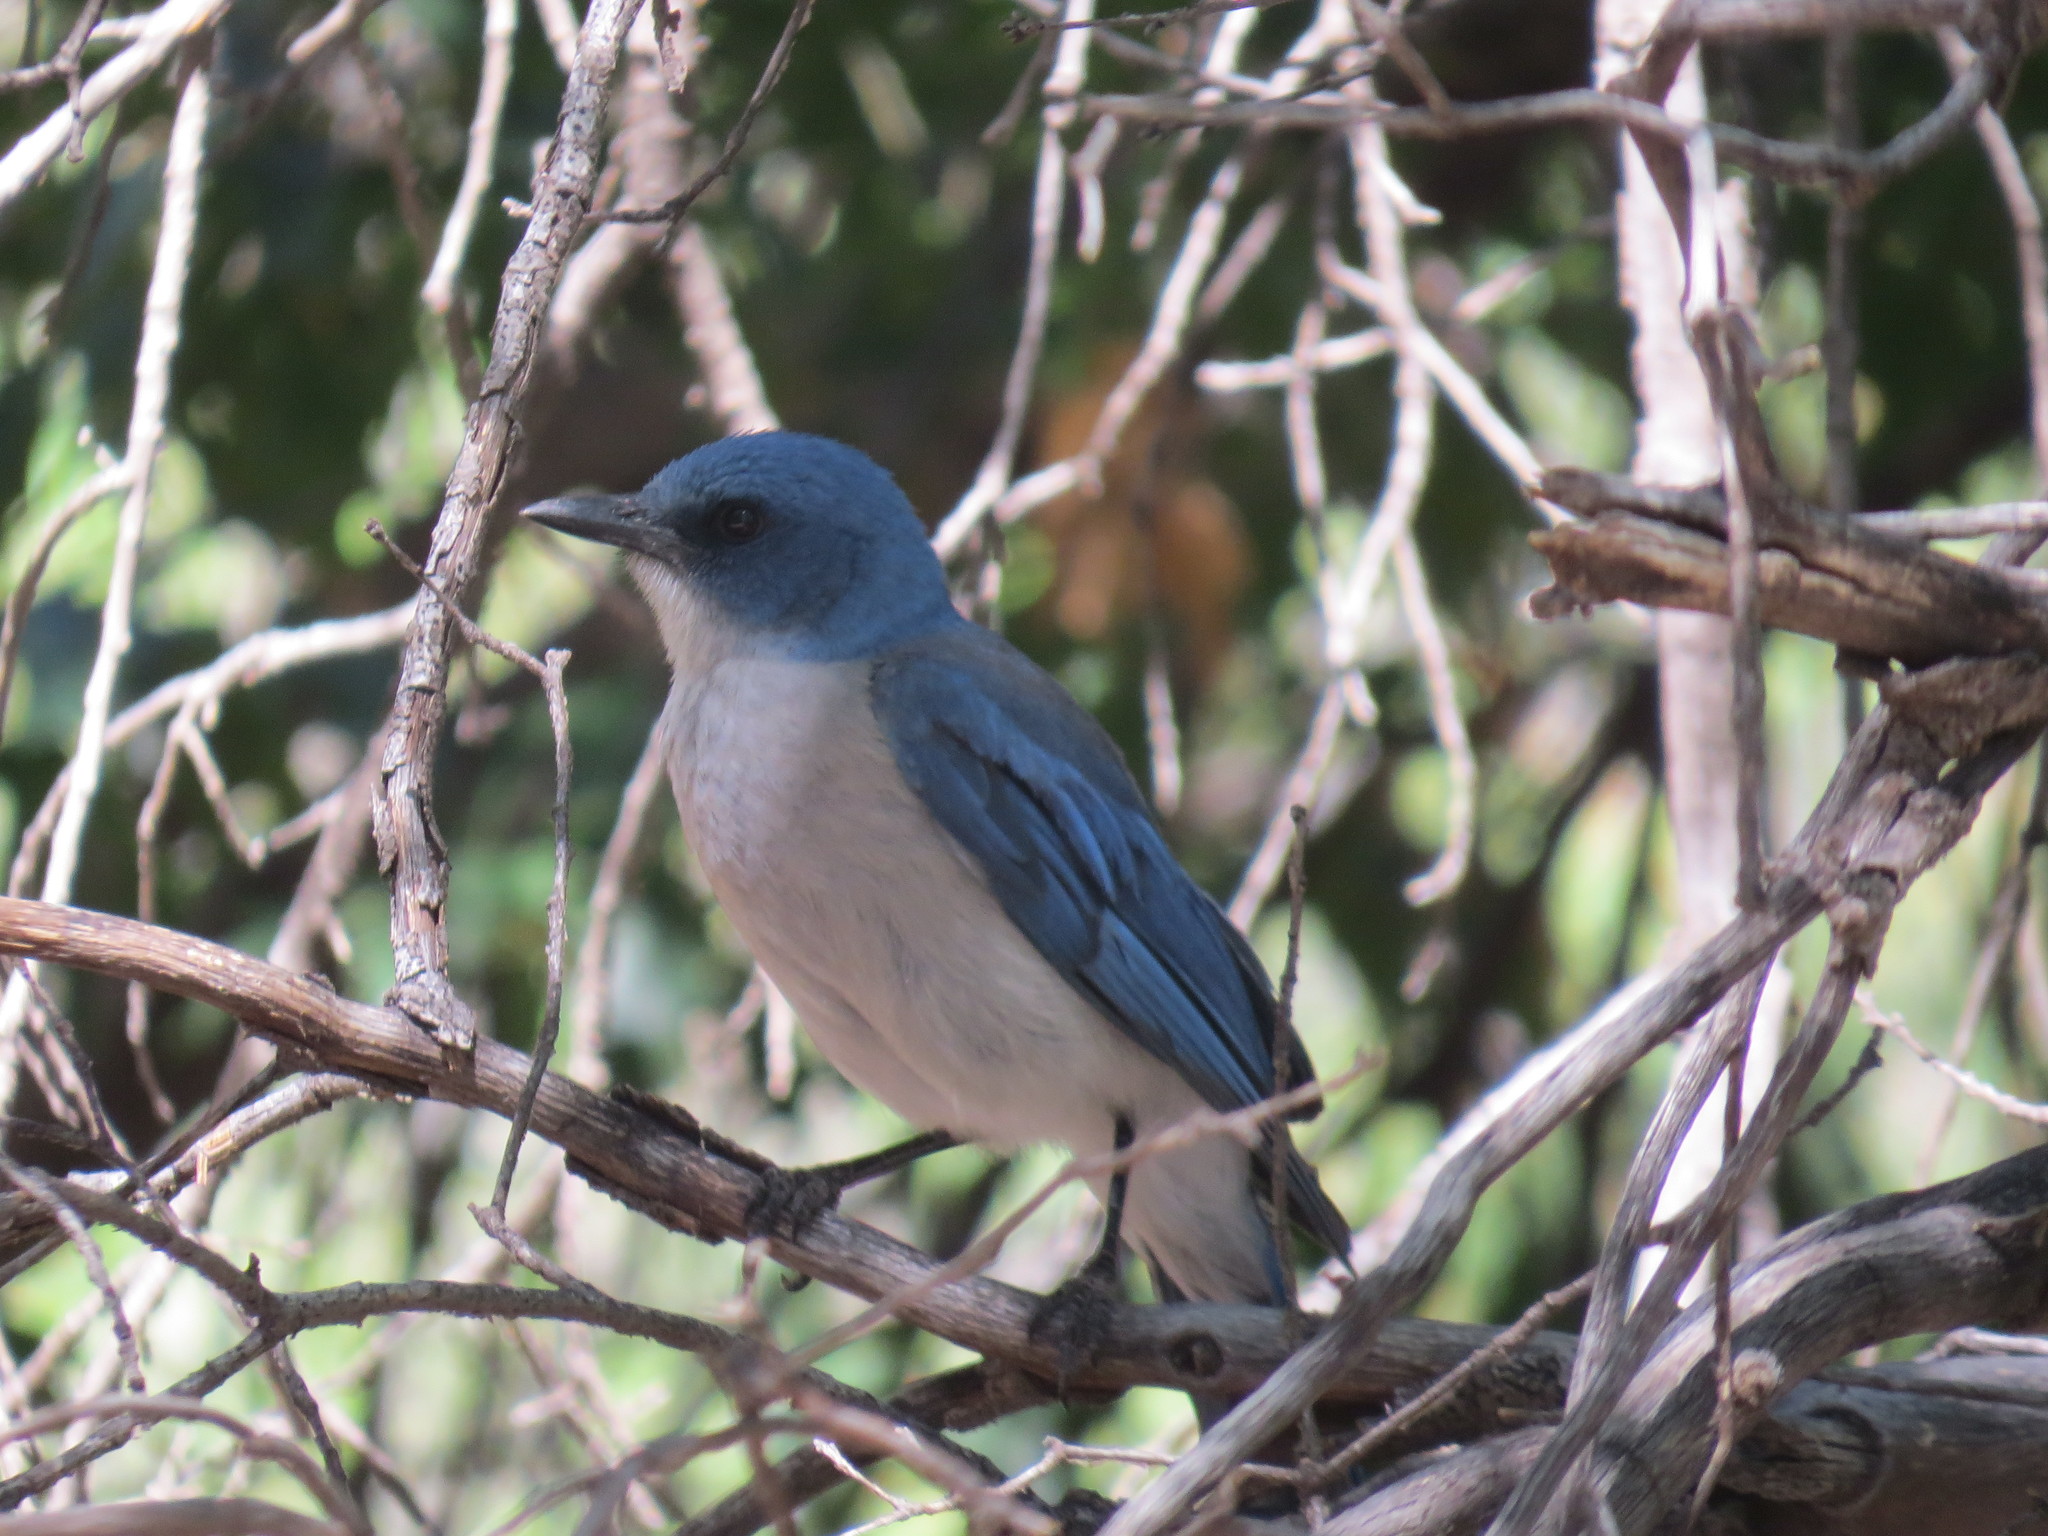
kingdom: Animalia
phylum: Chordata
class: Aves
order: Passeriformes
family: Corvidae
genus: Aphelocoma
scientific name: Aphelocoma wollweberi
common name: Mexican jay
